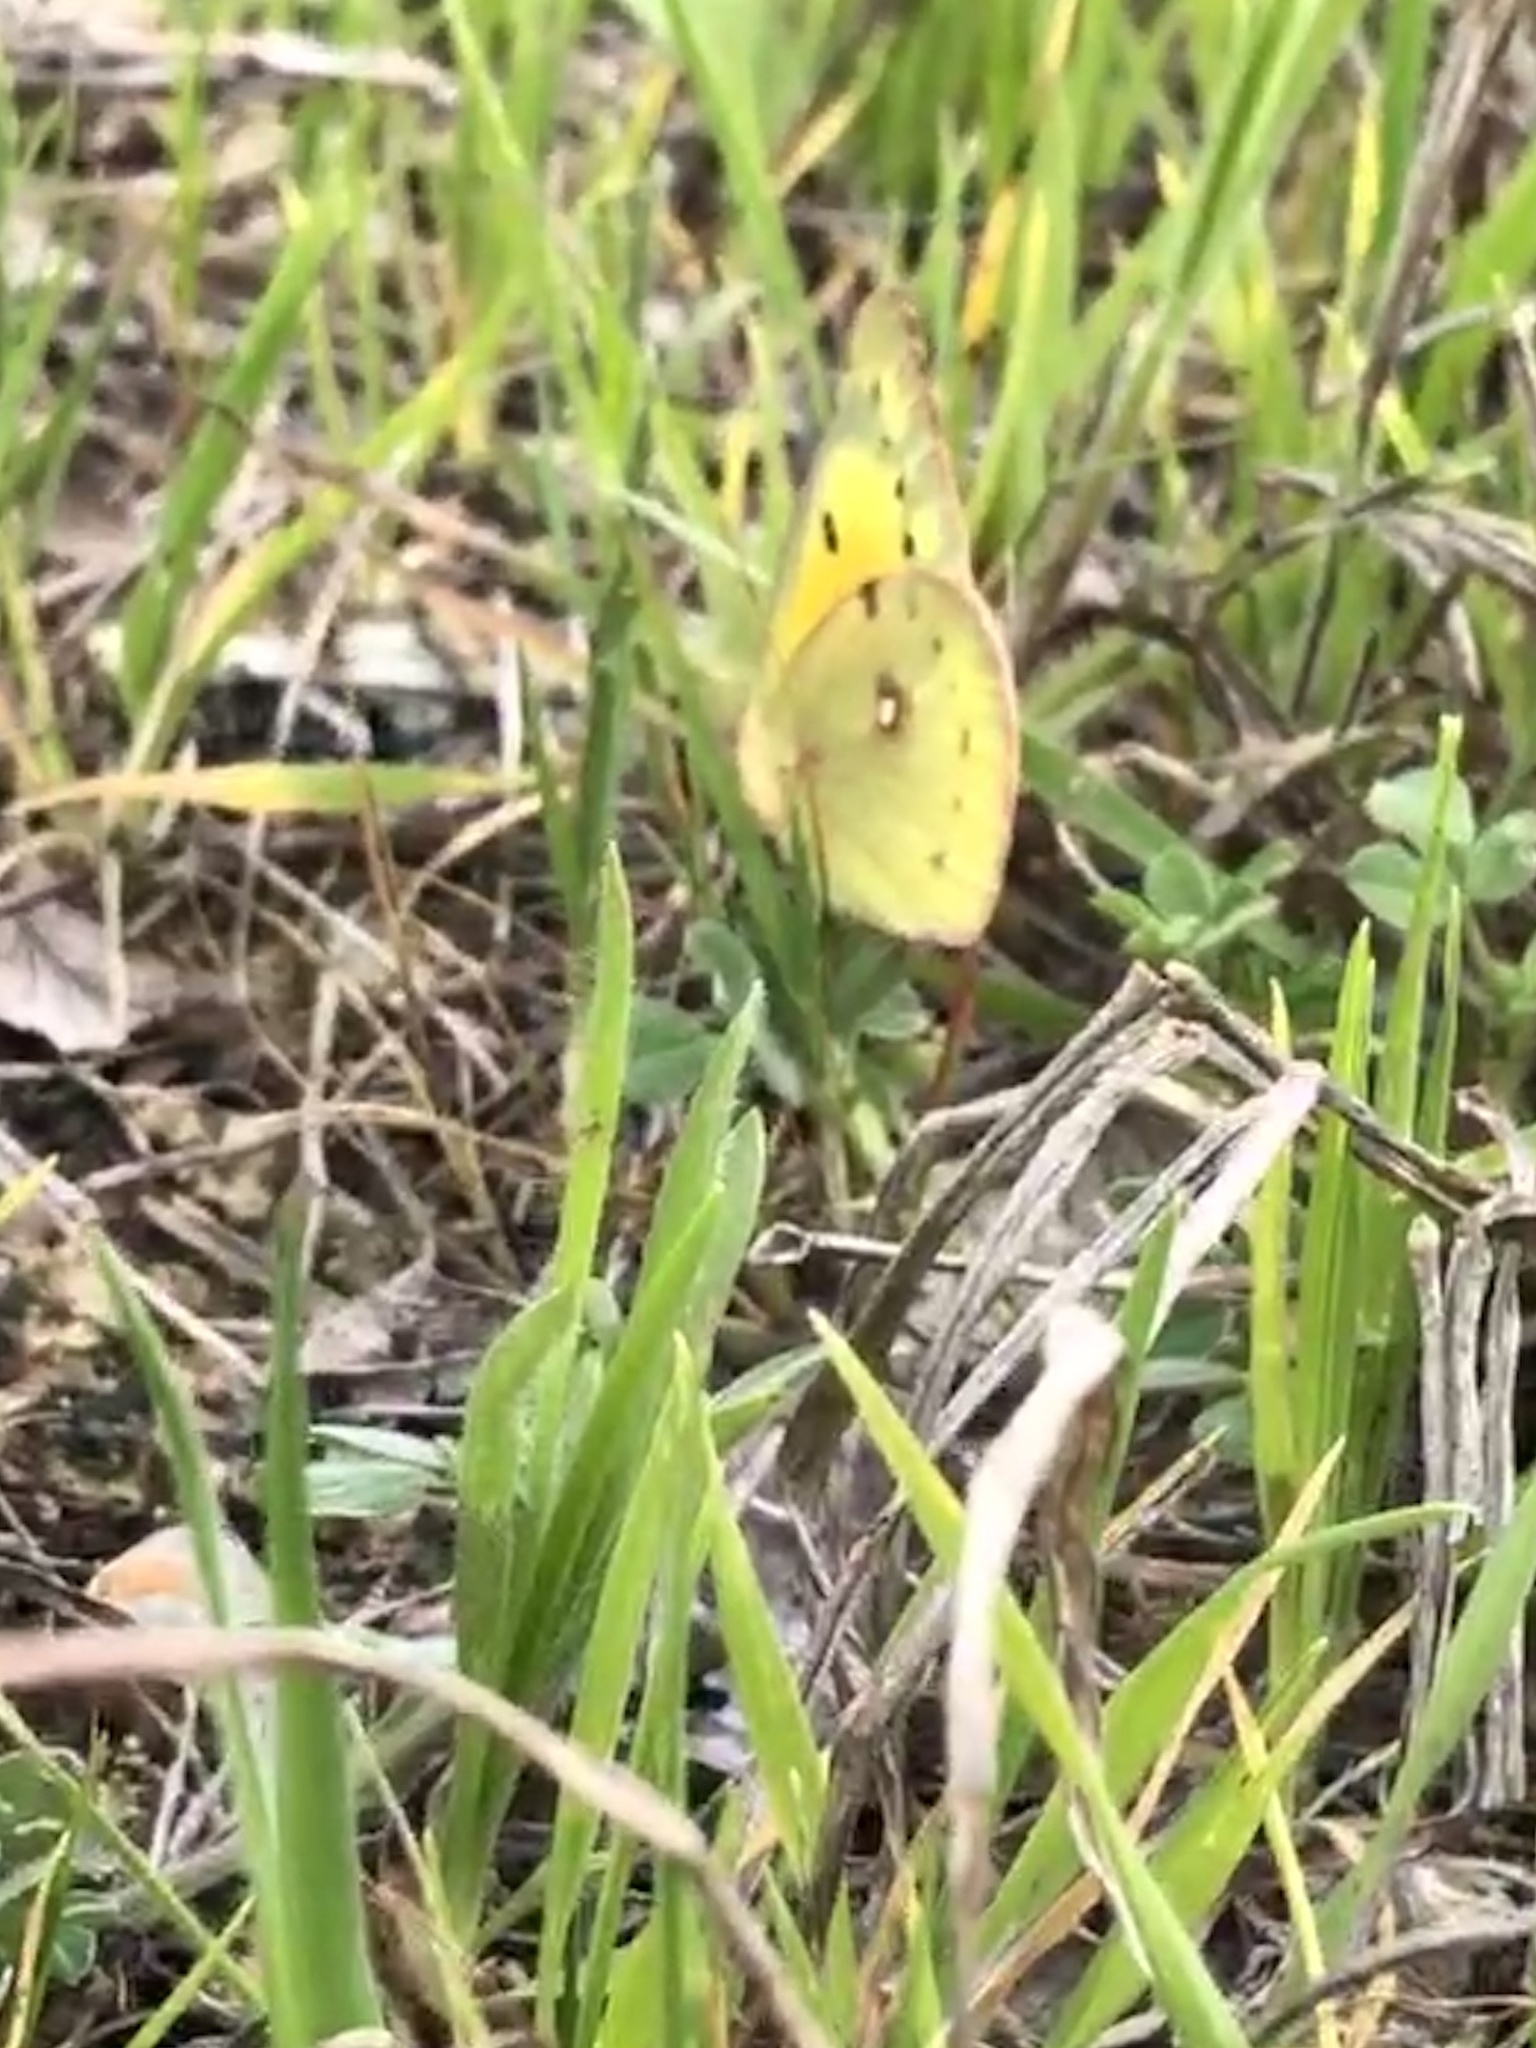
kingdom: Animalia
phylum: Arthropoda
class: Insecta
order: Lepidoptera
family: Pieridae
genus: Colias
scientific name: Colias eurytheme
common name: Alfalfa butterfly
